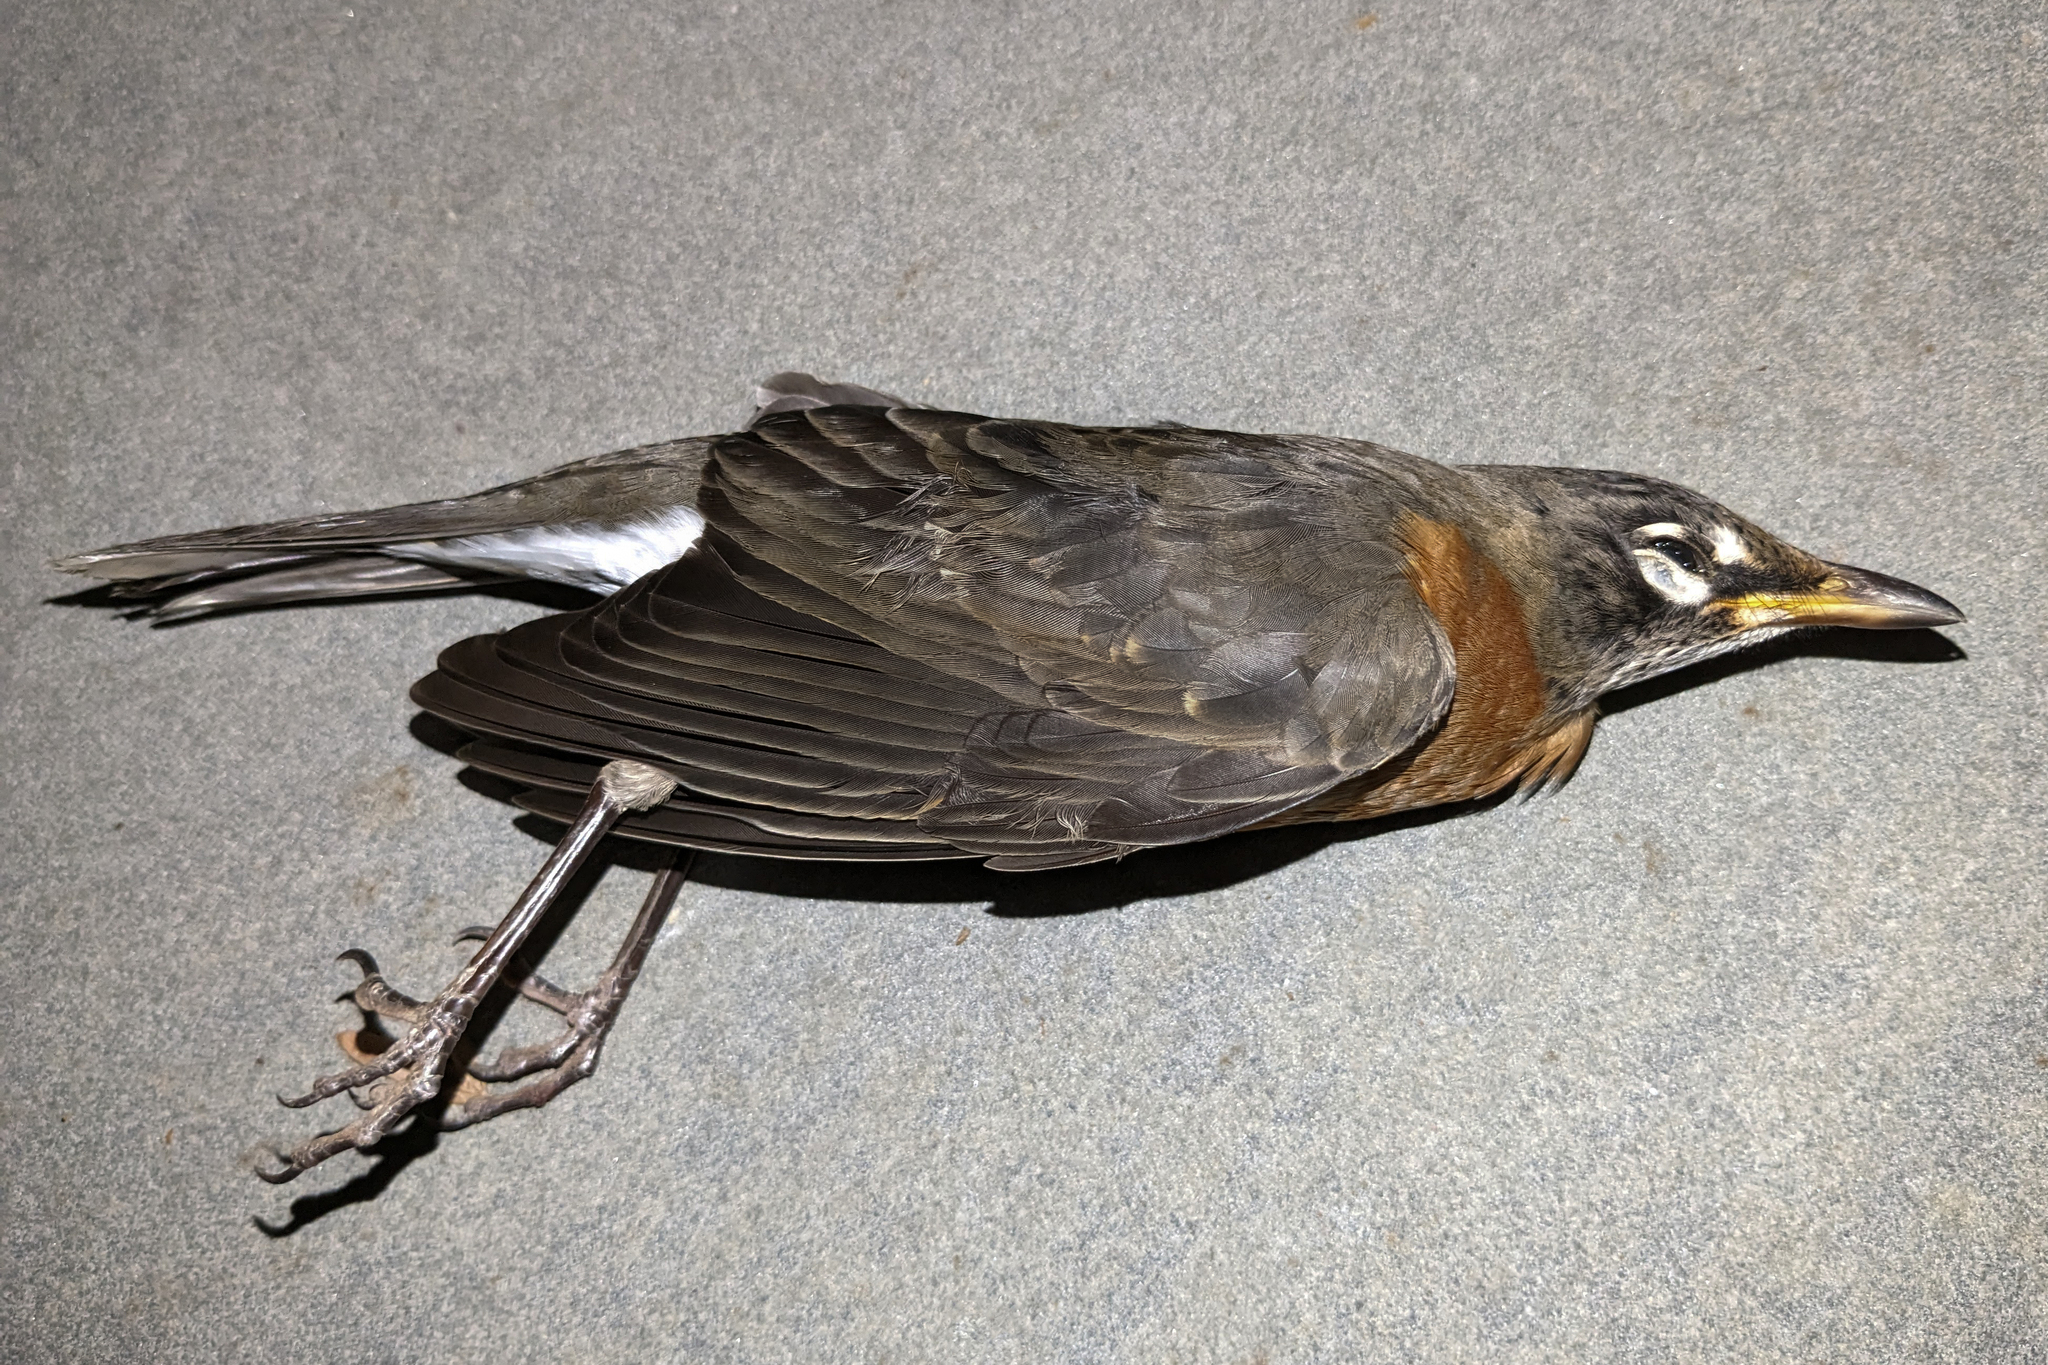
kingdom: Animalia
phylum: Chordata
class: Aves
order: Passeriformes
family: Turdidae
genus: Turdus
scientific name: Turdus migratorius
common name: American robin
